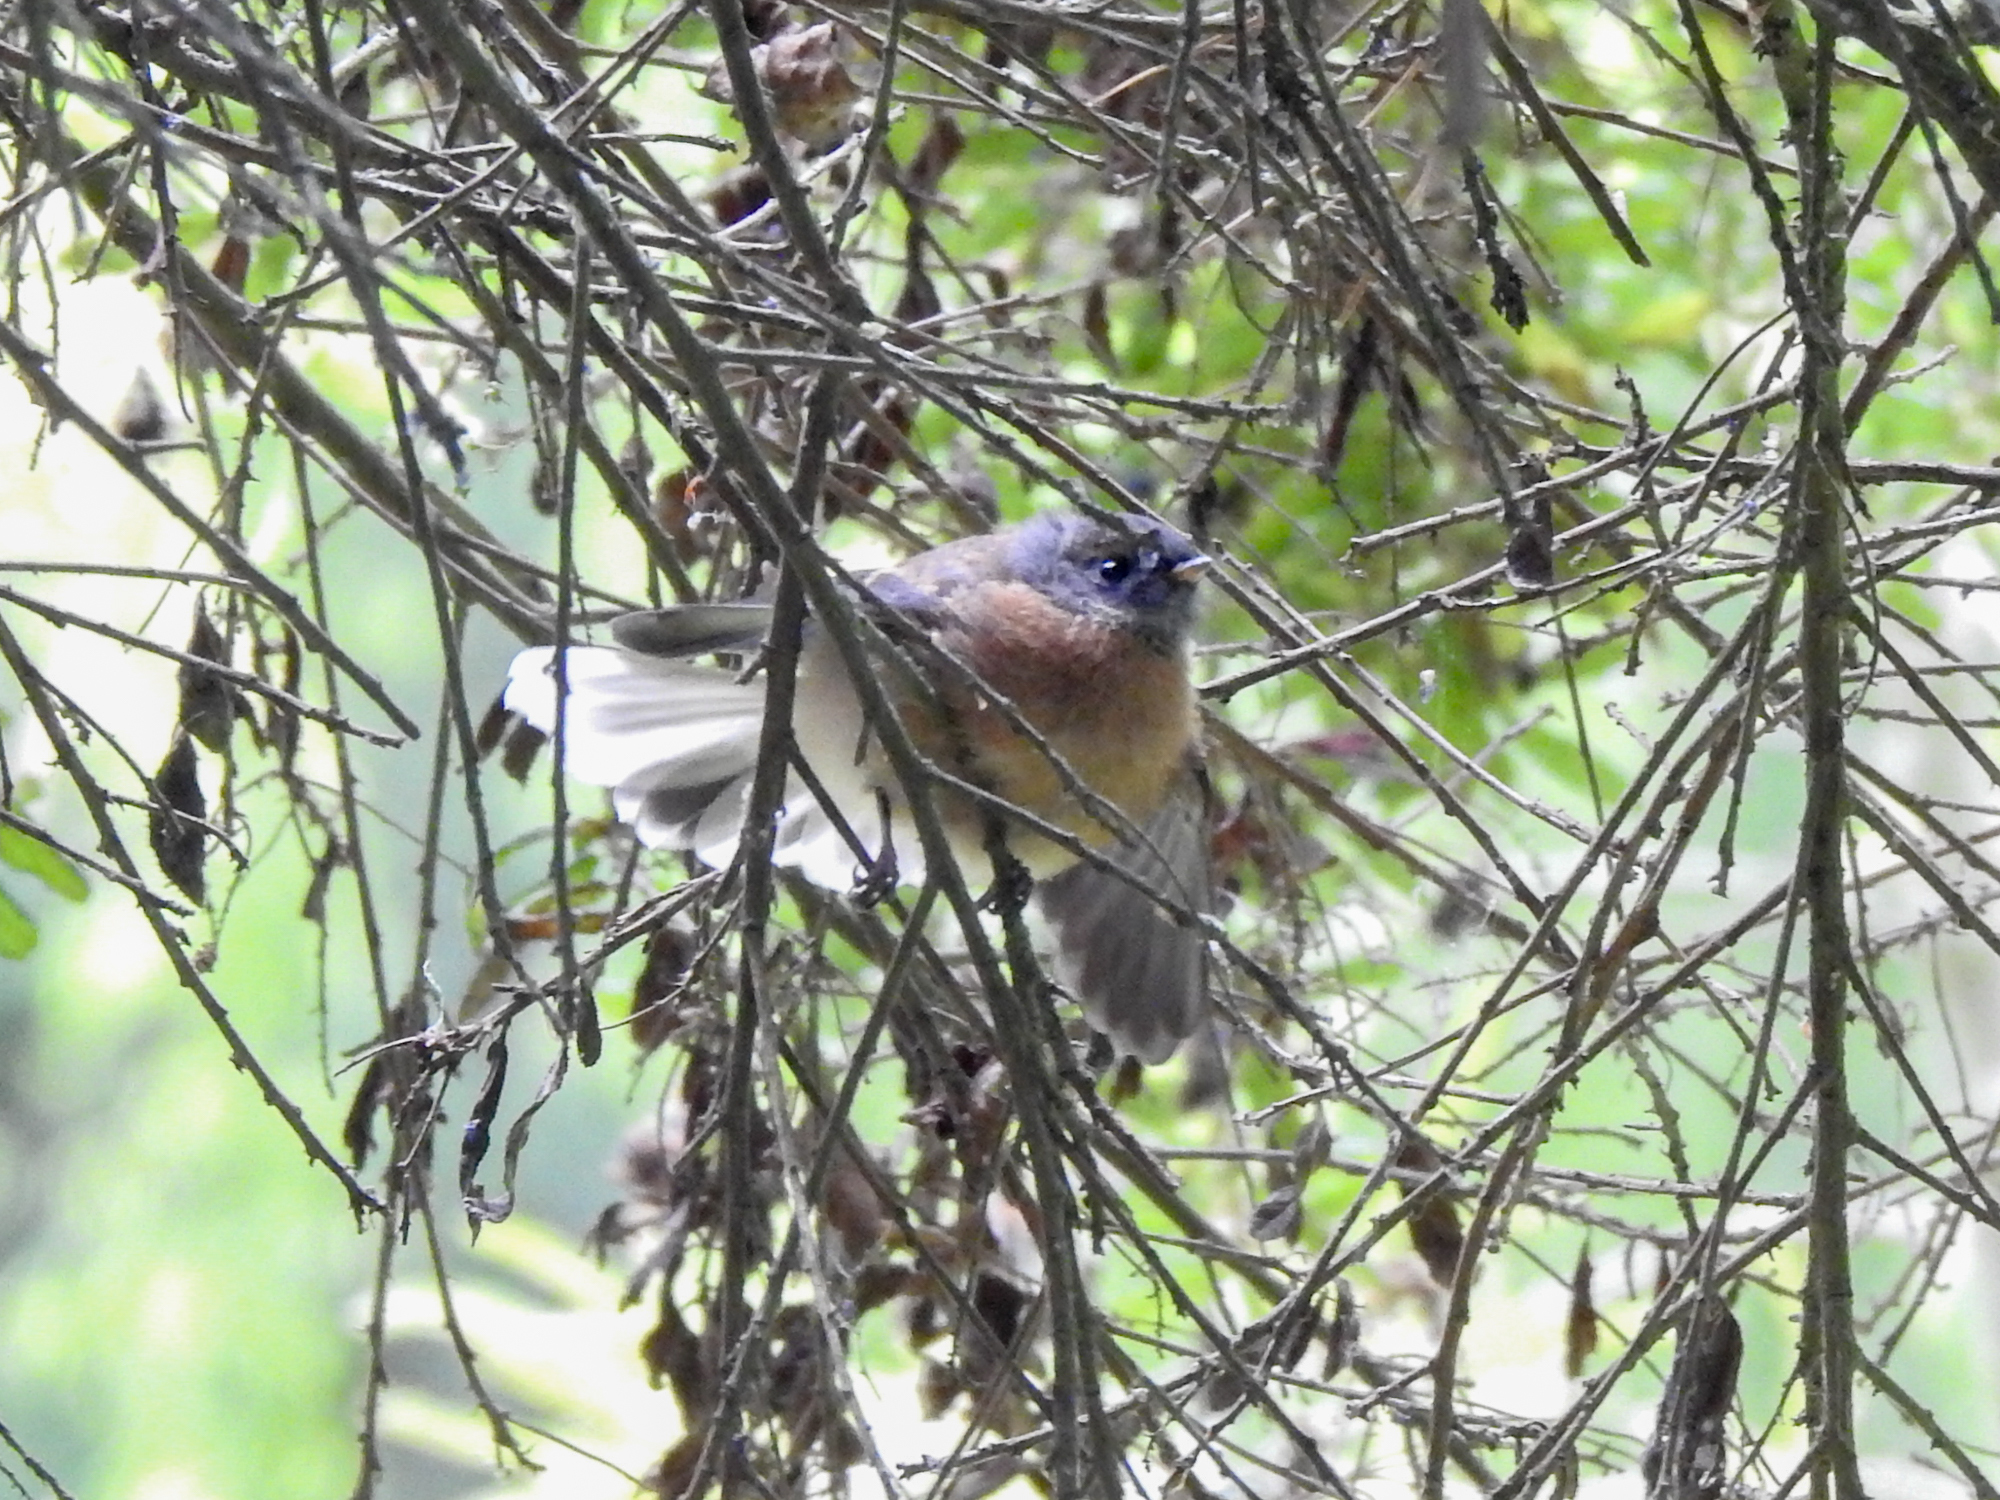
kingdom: Animalia
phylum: Chordata
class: Aves
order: Passeriformes
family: Rhipiduridae
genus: Rhipidura
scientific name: Rhipidura fuliginosa
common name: New zealand fantail
